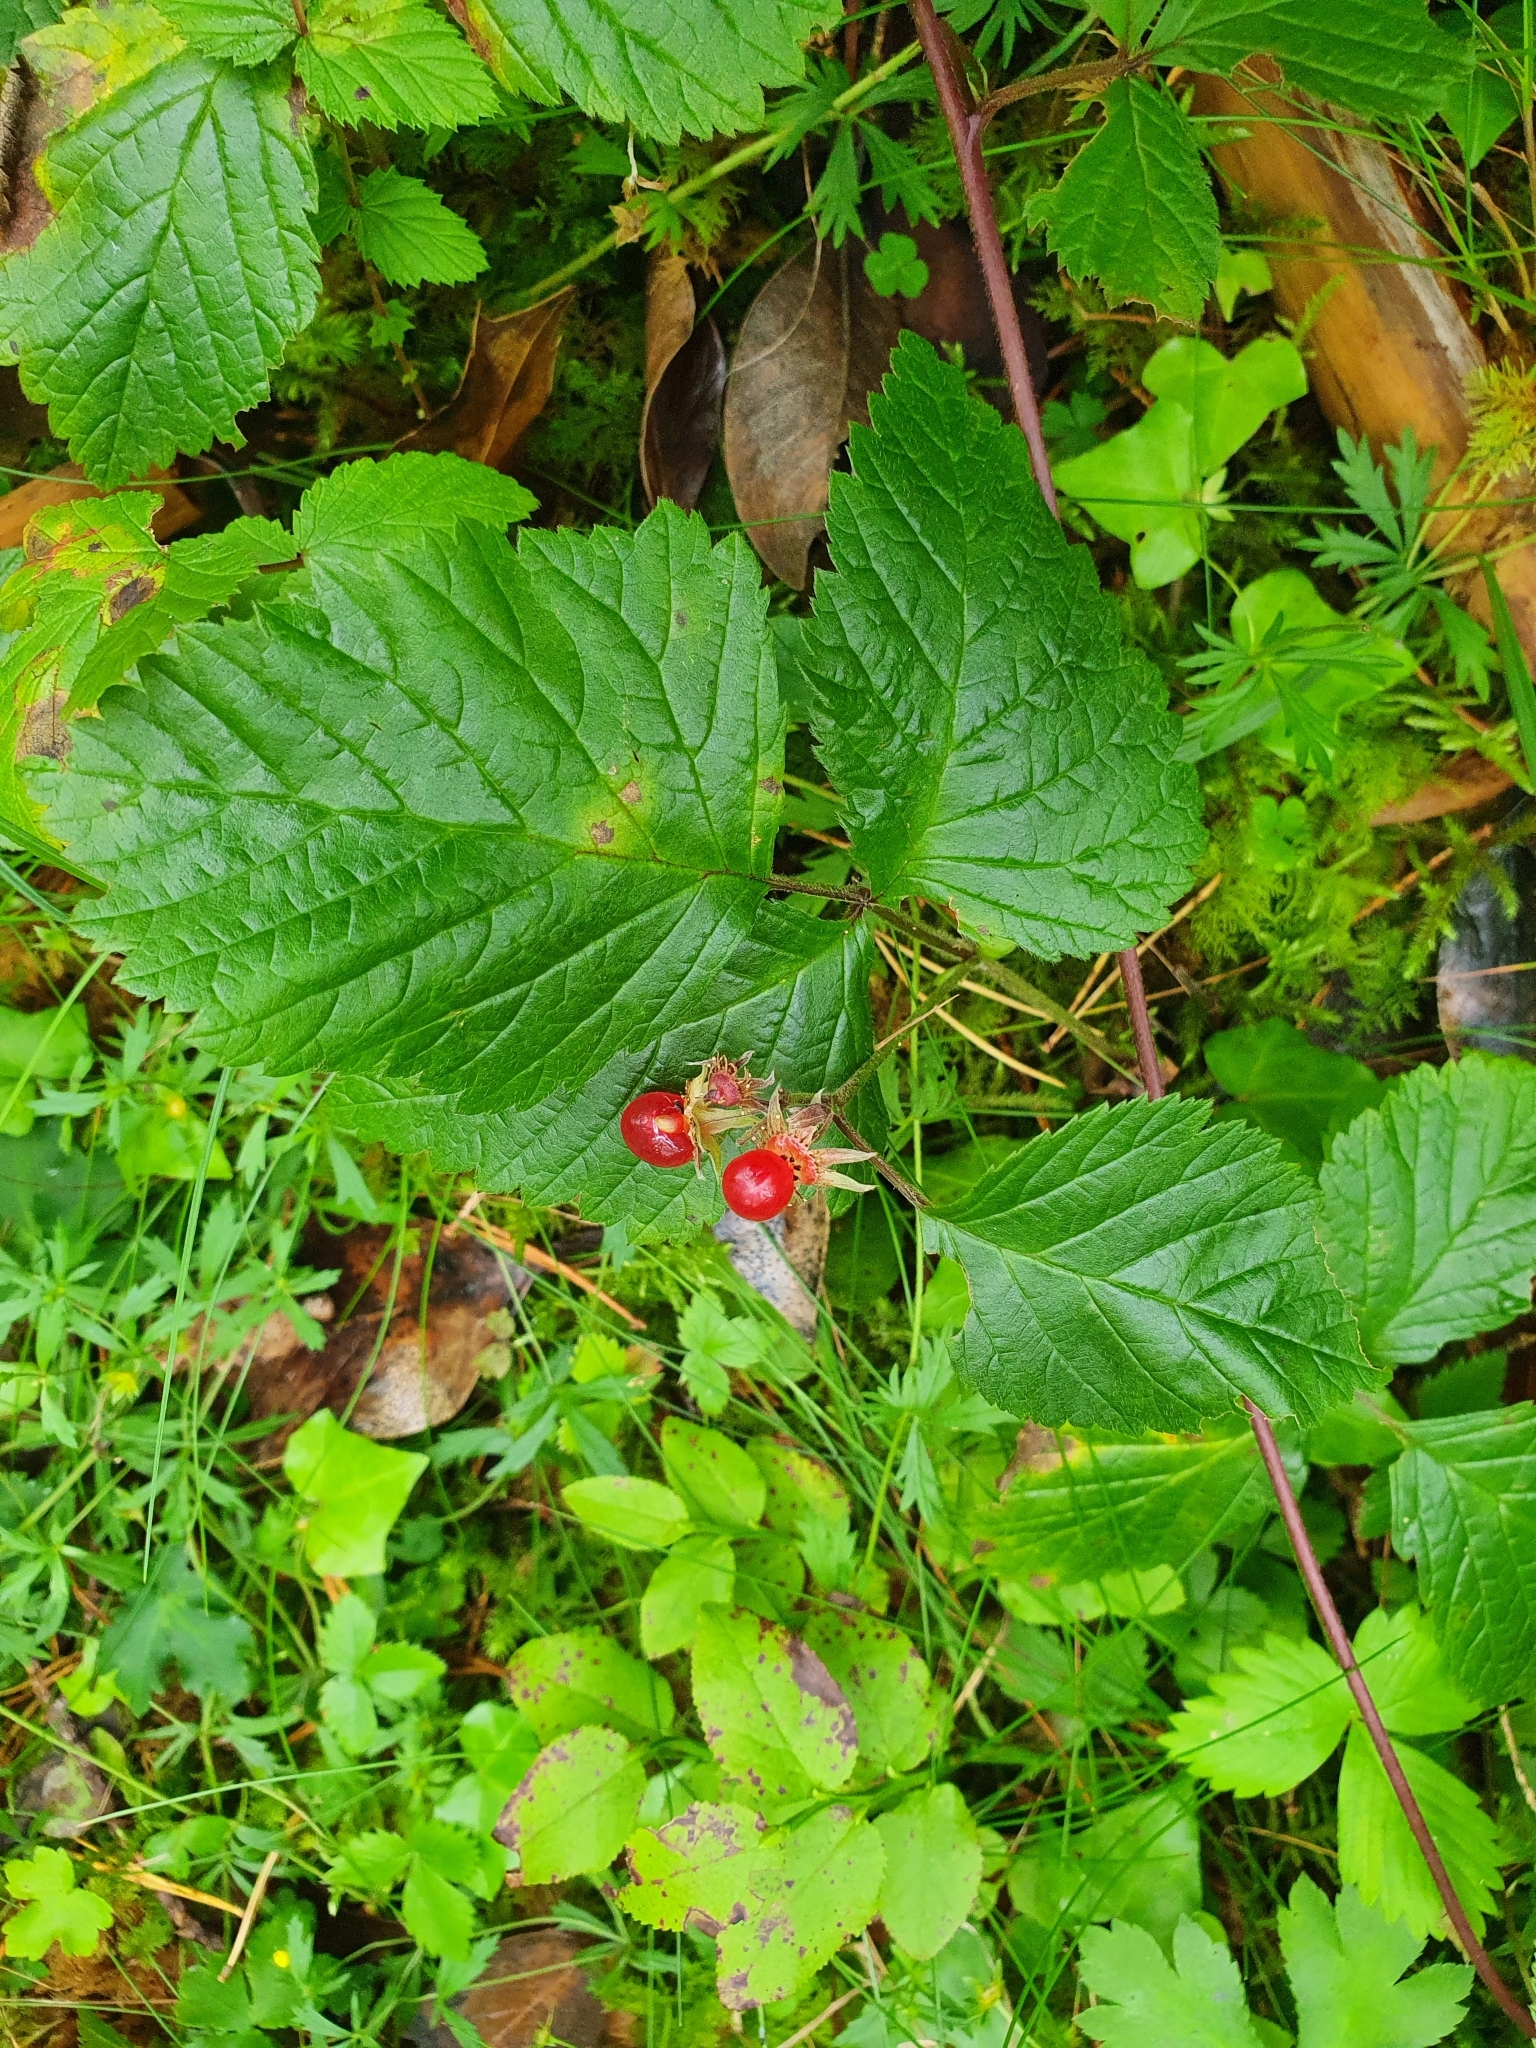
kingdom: Plantae
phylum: Tracheophyta
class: Magnoliopsida
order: Rosales
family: Rosaceae
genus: Rubus
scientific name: Rubus saxatilis
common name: Stone bramble
